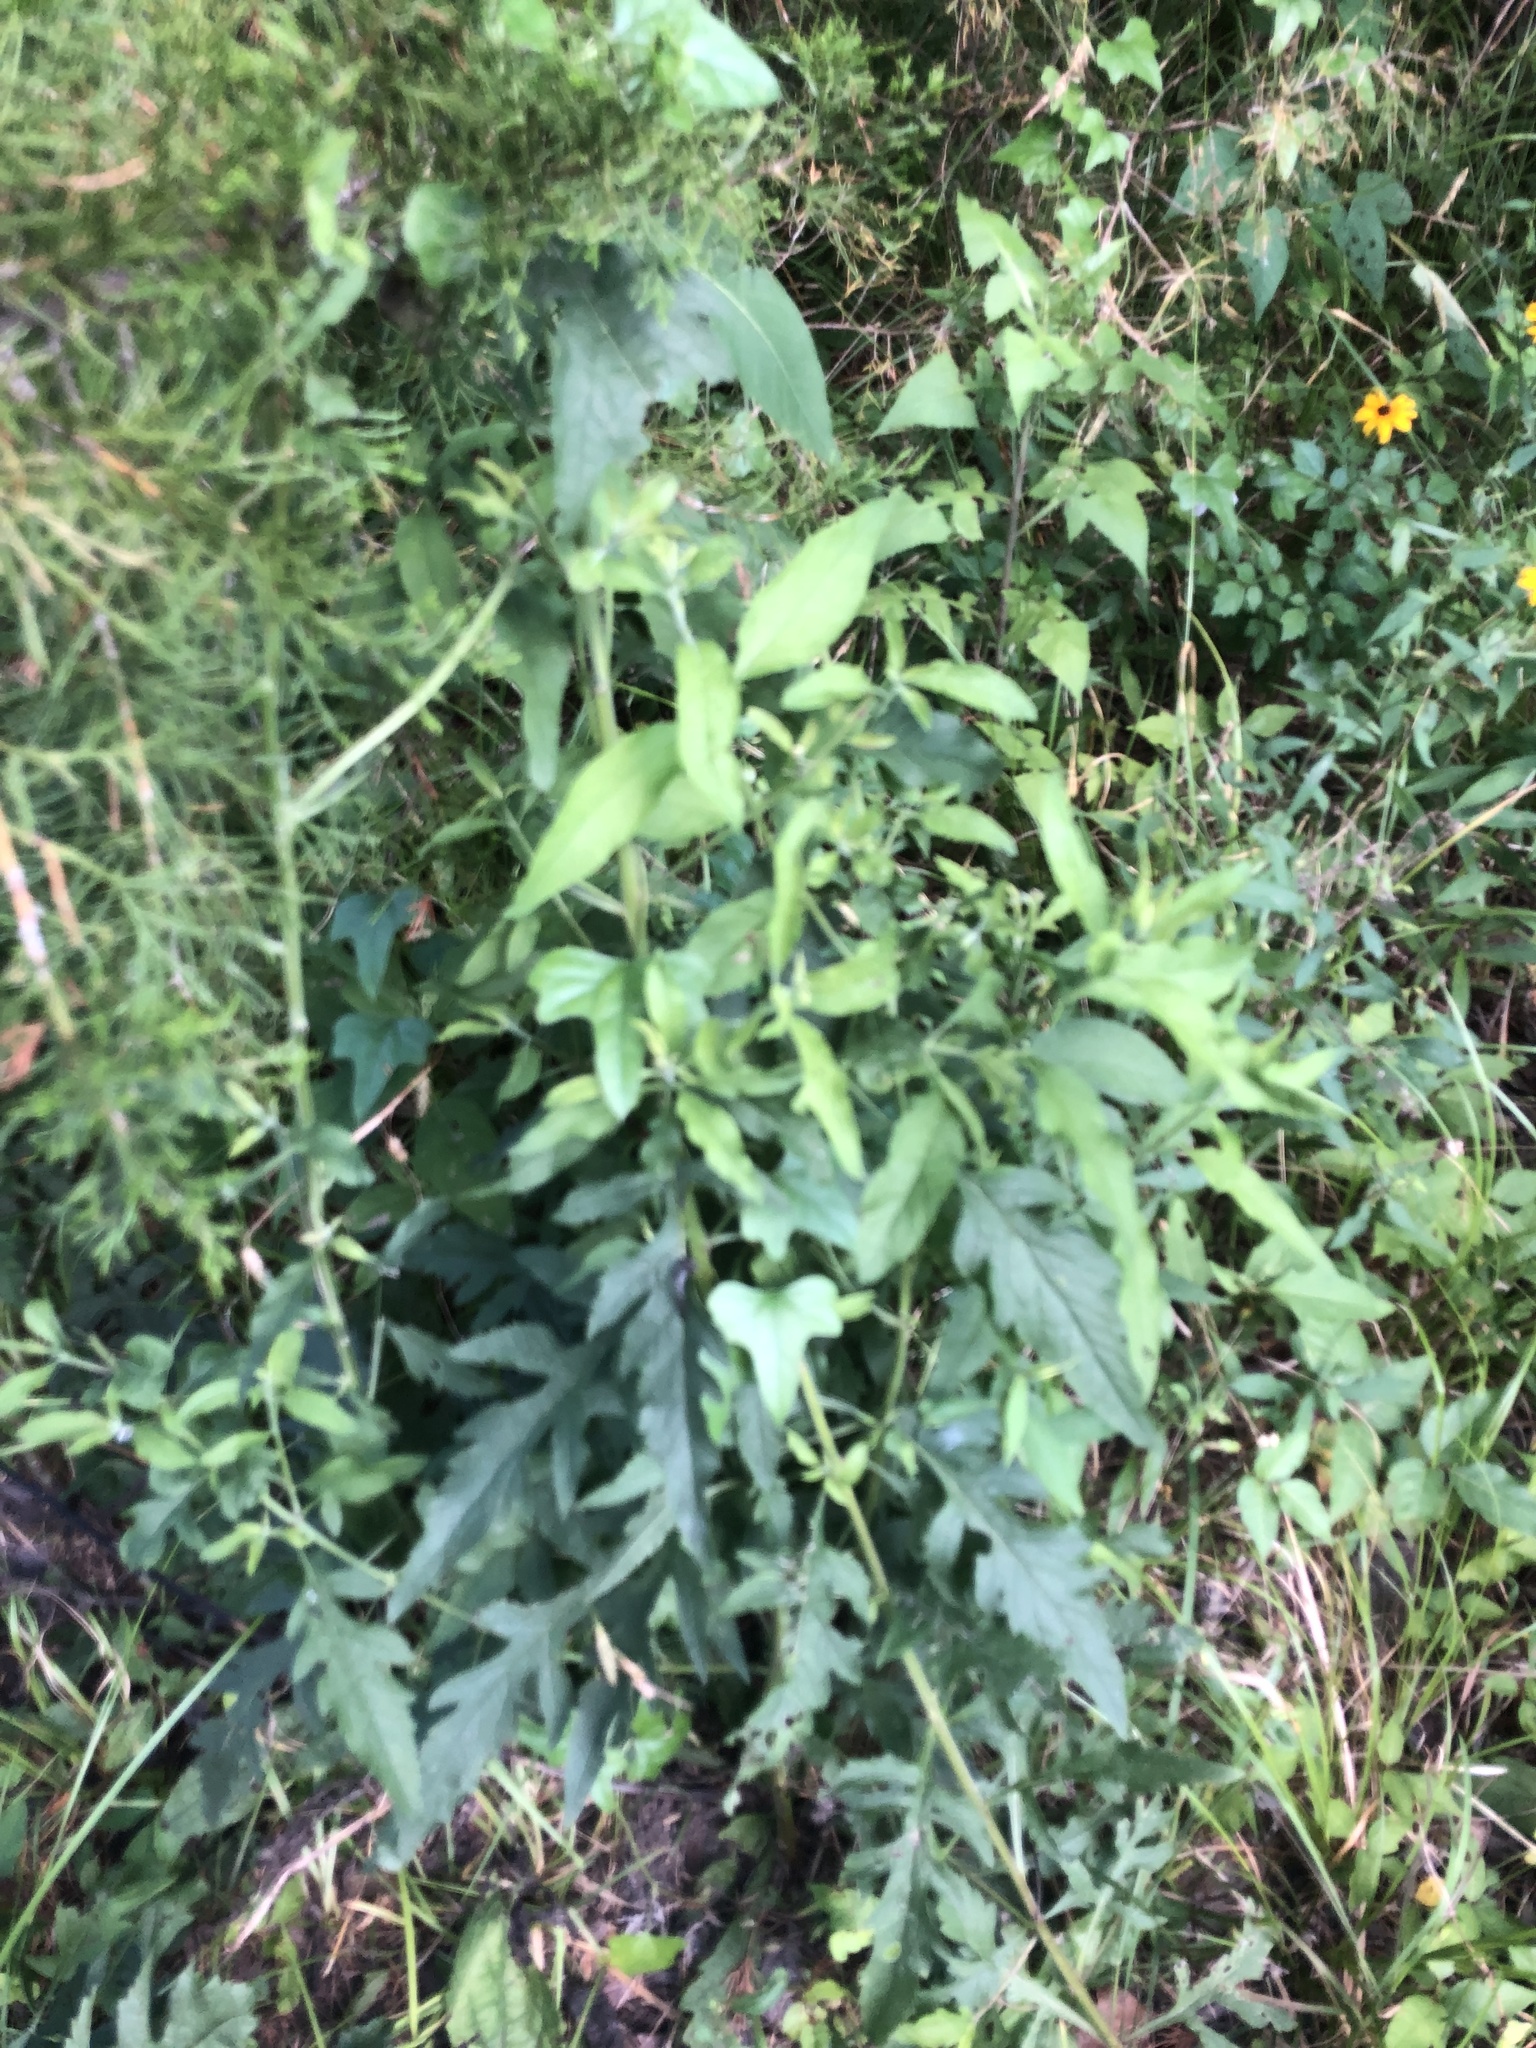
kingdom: Plantae
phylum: Tracheophyta
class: Magnoliopsida
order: Lamiales
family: Orobanchaceae
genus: Dasistoma
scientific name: Dasistoma macrophyllum
